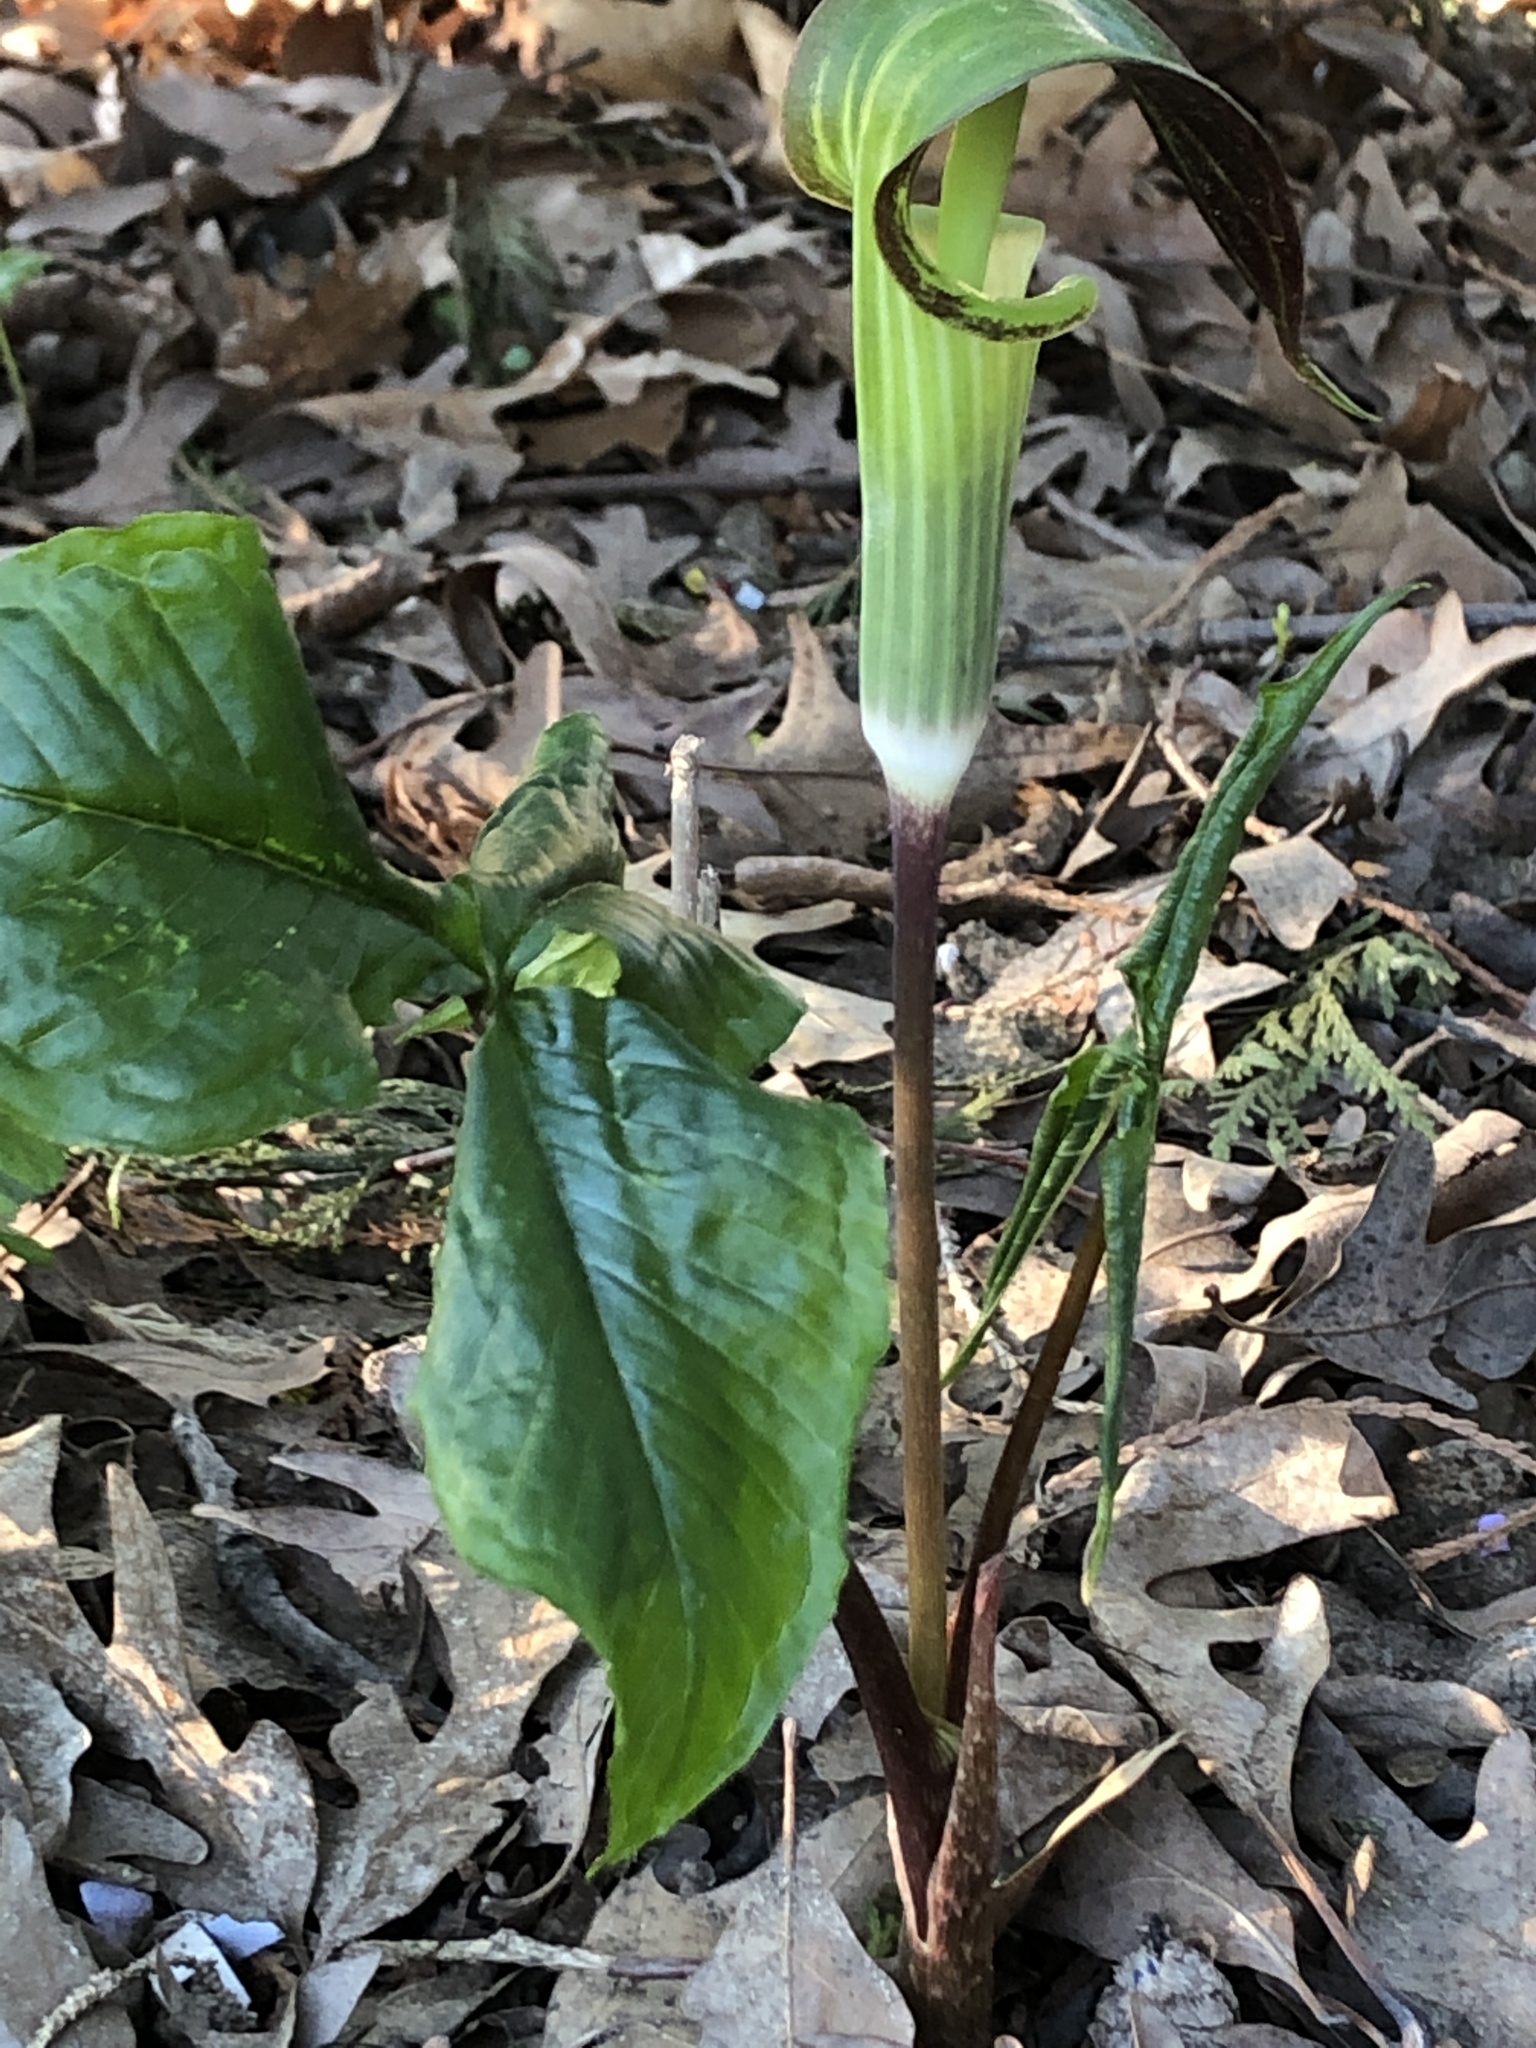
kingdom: Plantae
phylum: Tracheophyta
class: Liliopsida
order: Alismatales
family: Araceae
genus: Arisaema
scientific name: Arisaema triphyllum
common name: Jack-in-the-pulpit
